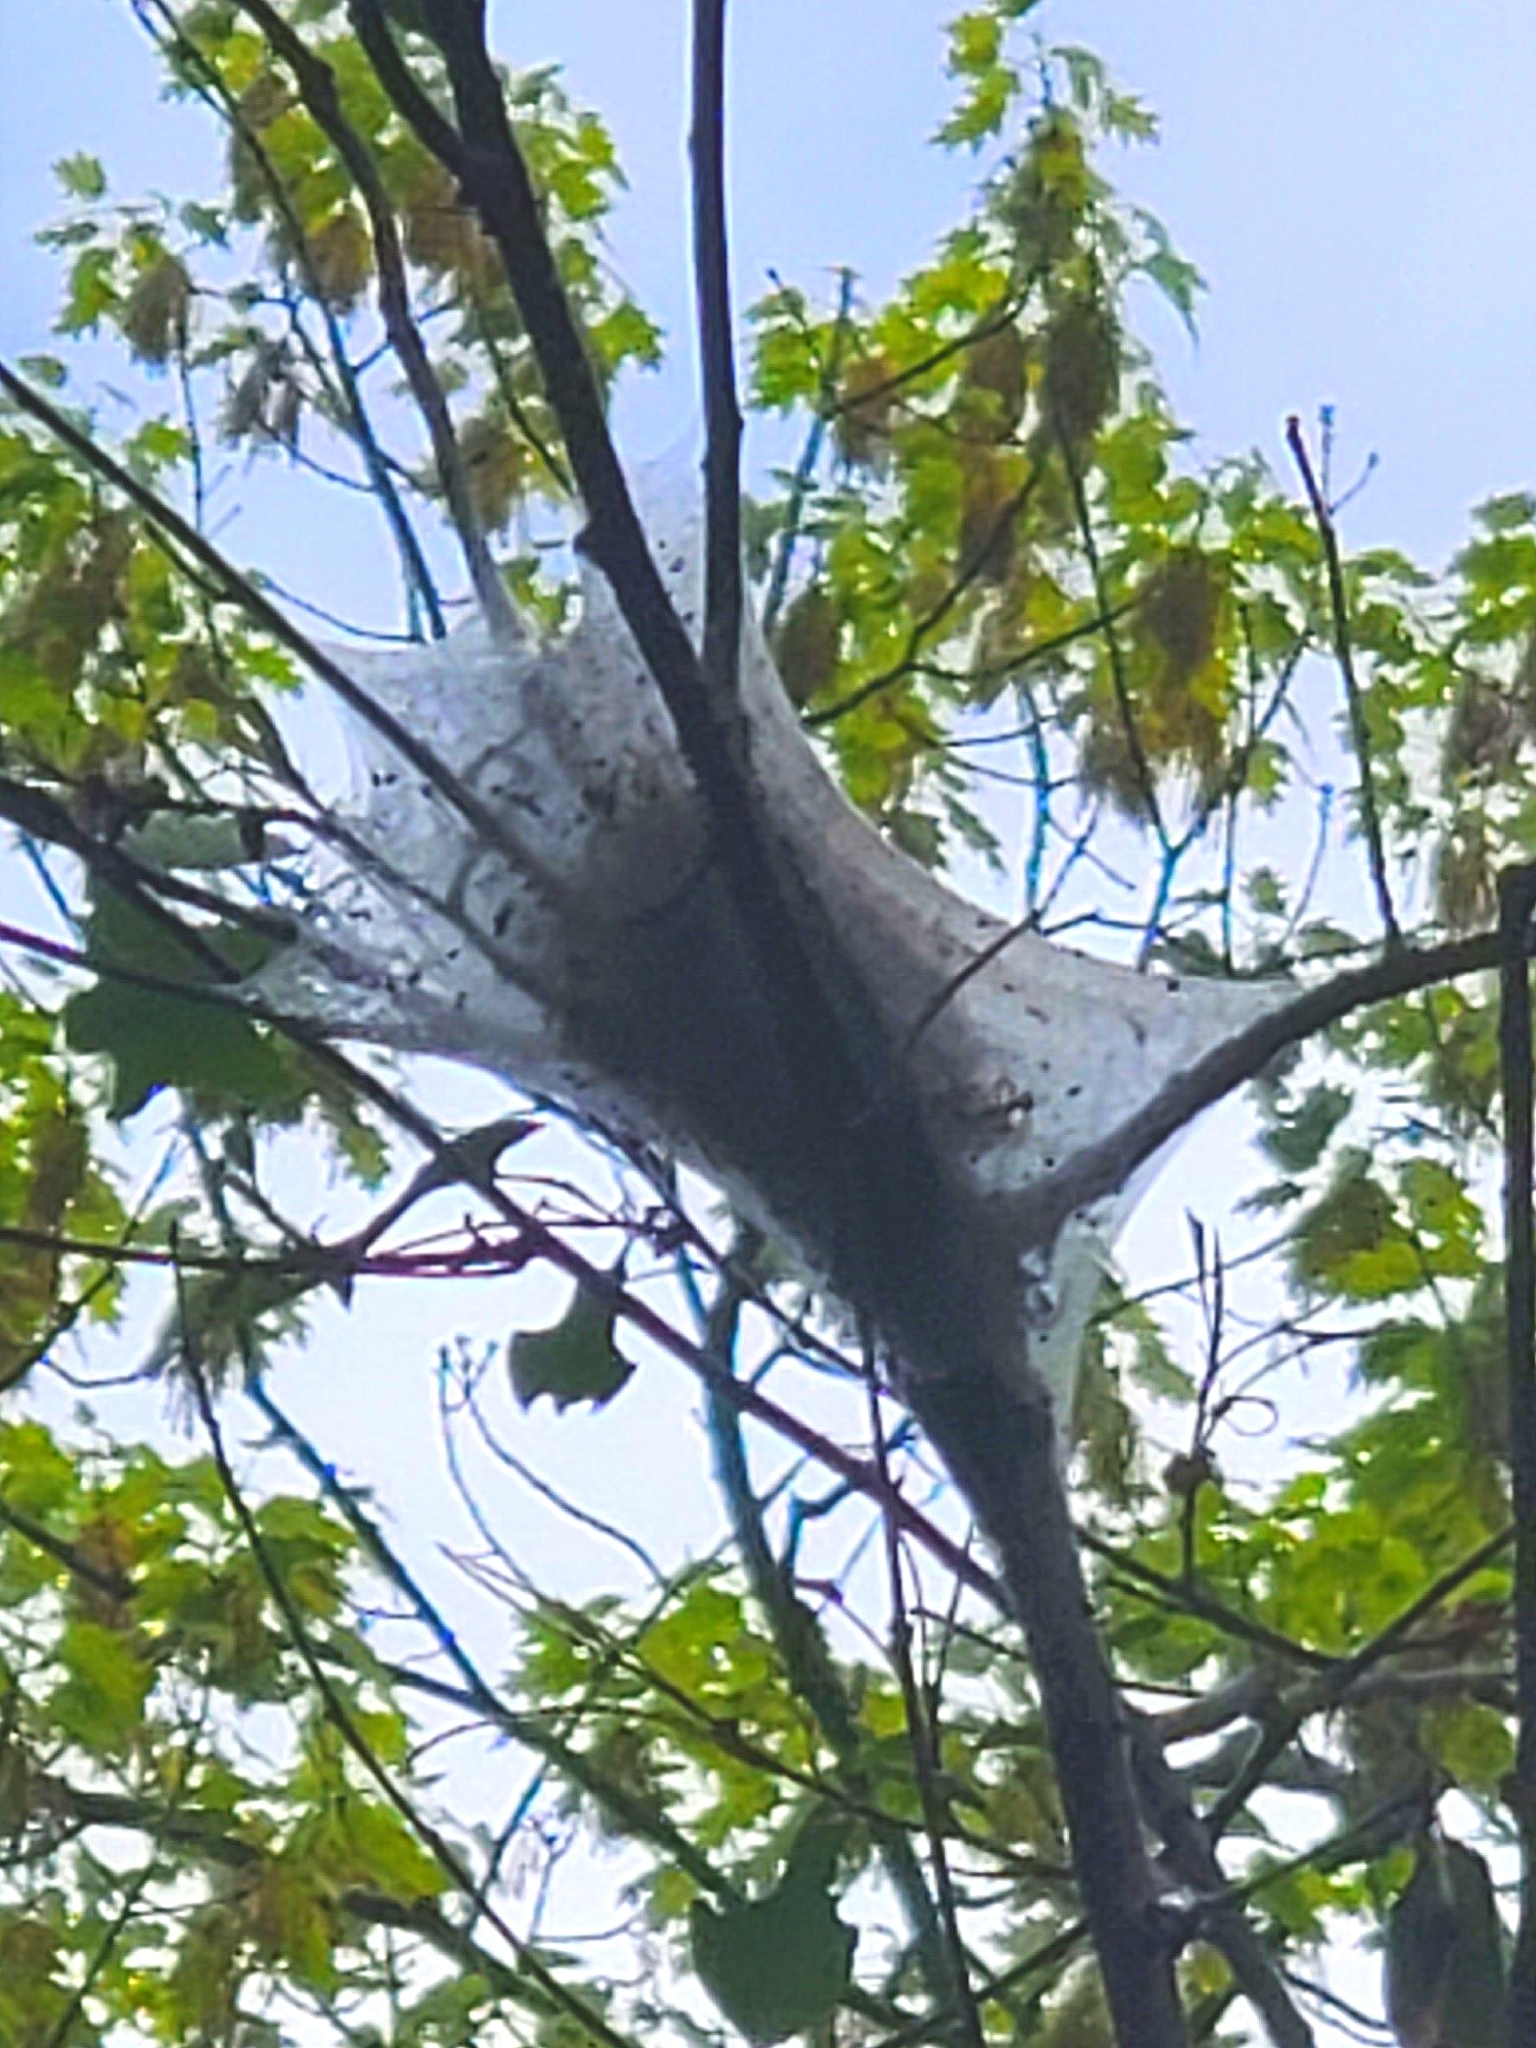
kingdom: Animalia
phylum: Arthropoda
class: Insecta
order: Lepidoptera
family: Lasiocampidae
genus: Malacosoma
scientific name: Malacosoma americana
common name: Eastern tent caterpillar moth
